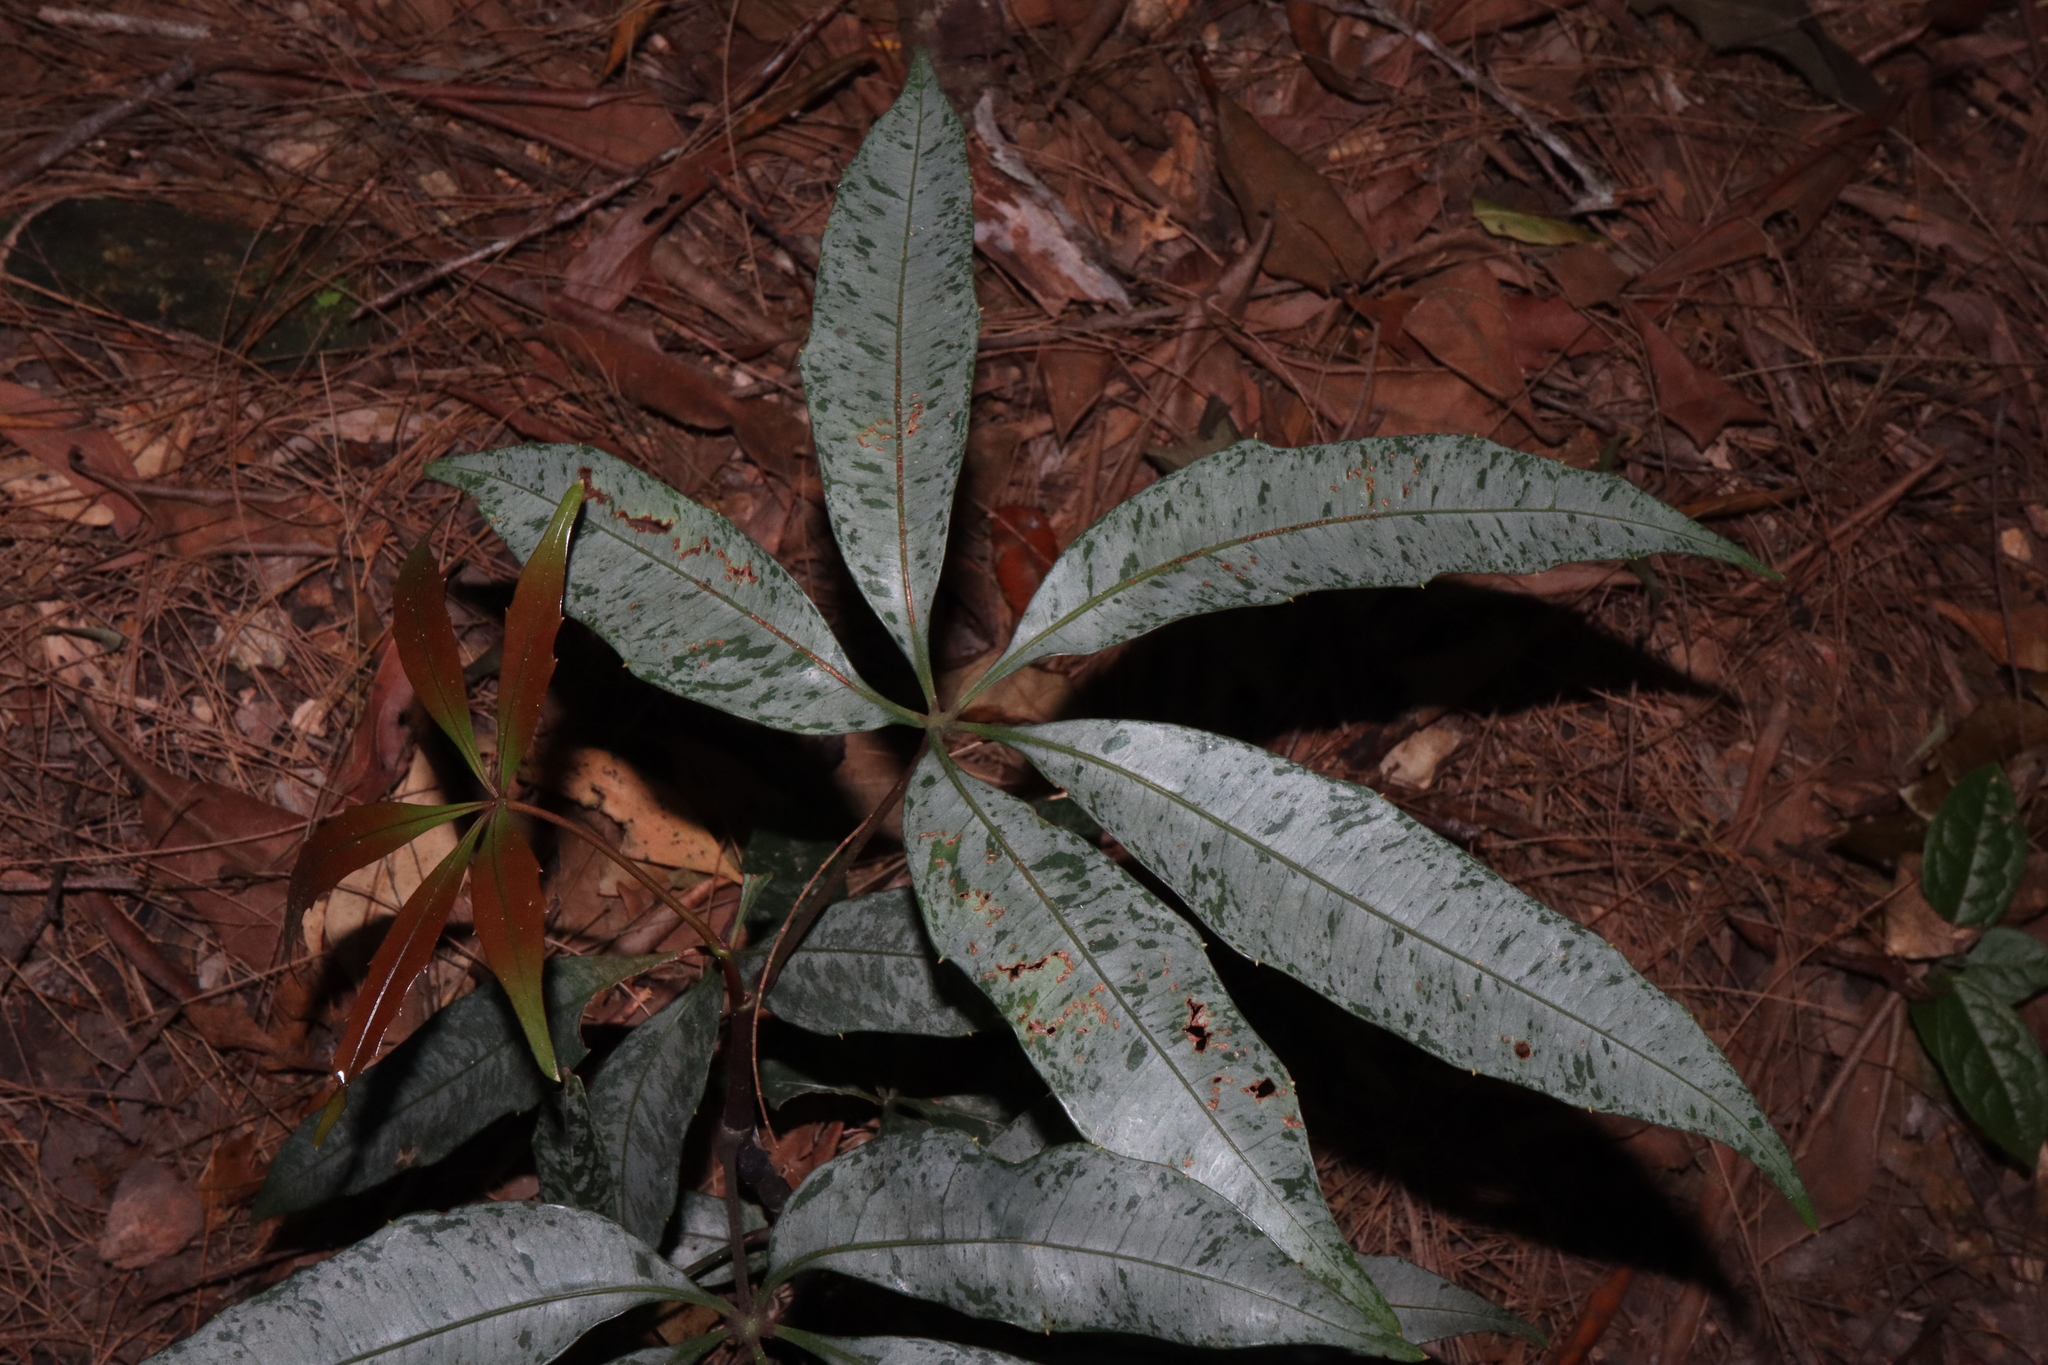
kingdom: Plantae
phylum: Tracheophyta
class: Magnoliopsida
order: Vitales
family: Vitaceae
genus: Nothocissus
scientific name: Nothocissus penninervis
